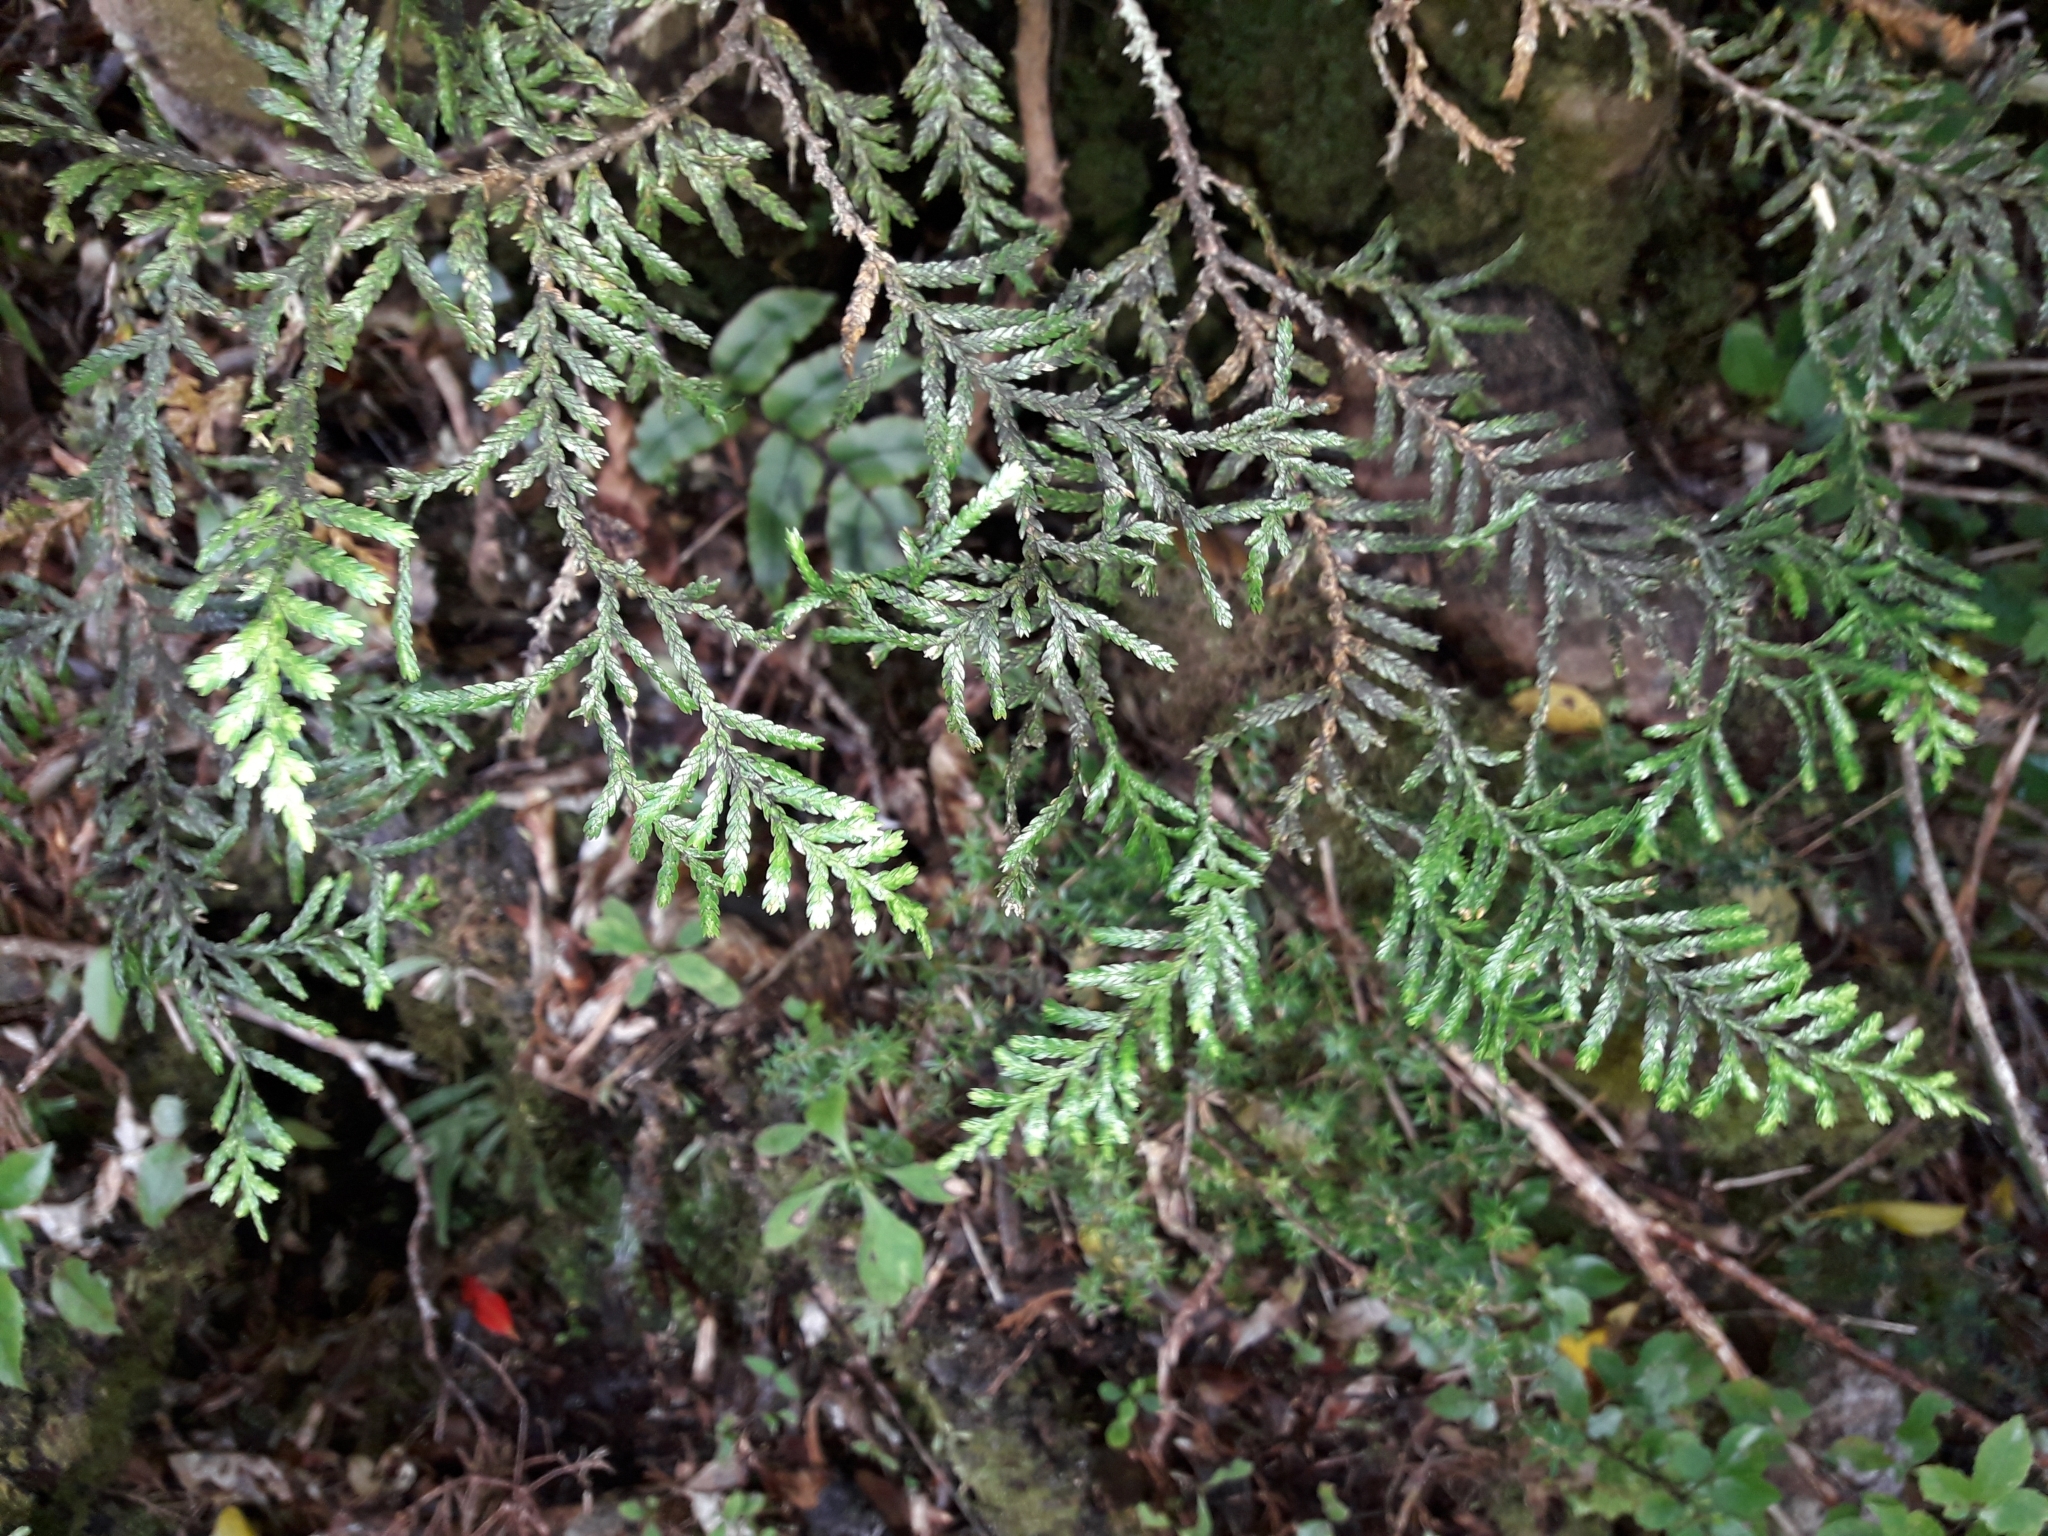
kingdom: Plantae
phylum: Tracheophyta
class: Pinopsida
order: Pinales
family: Cupressaceae
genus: Libocedrus
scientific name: Libocedrus bidwillii
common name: Cedar
